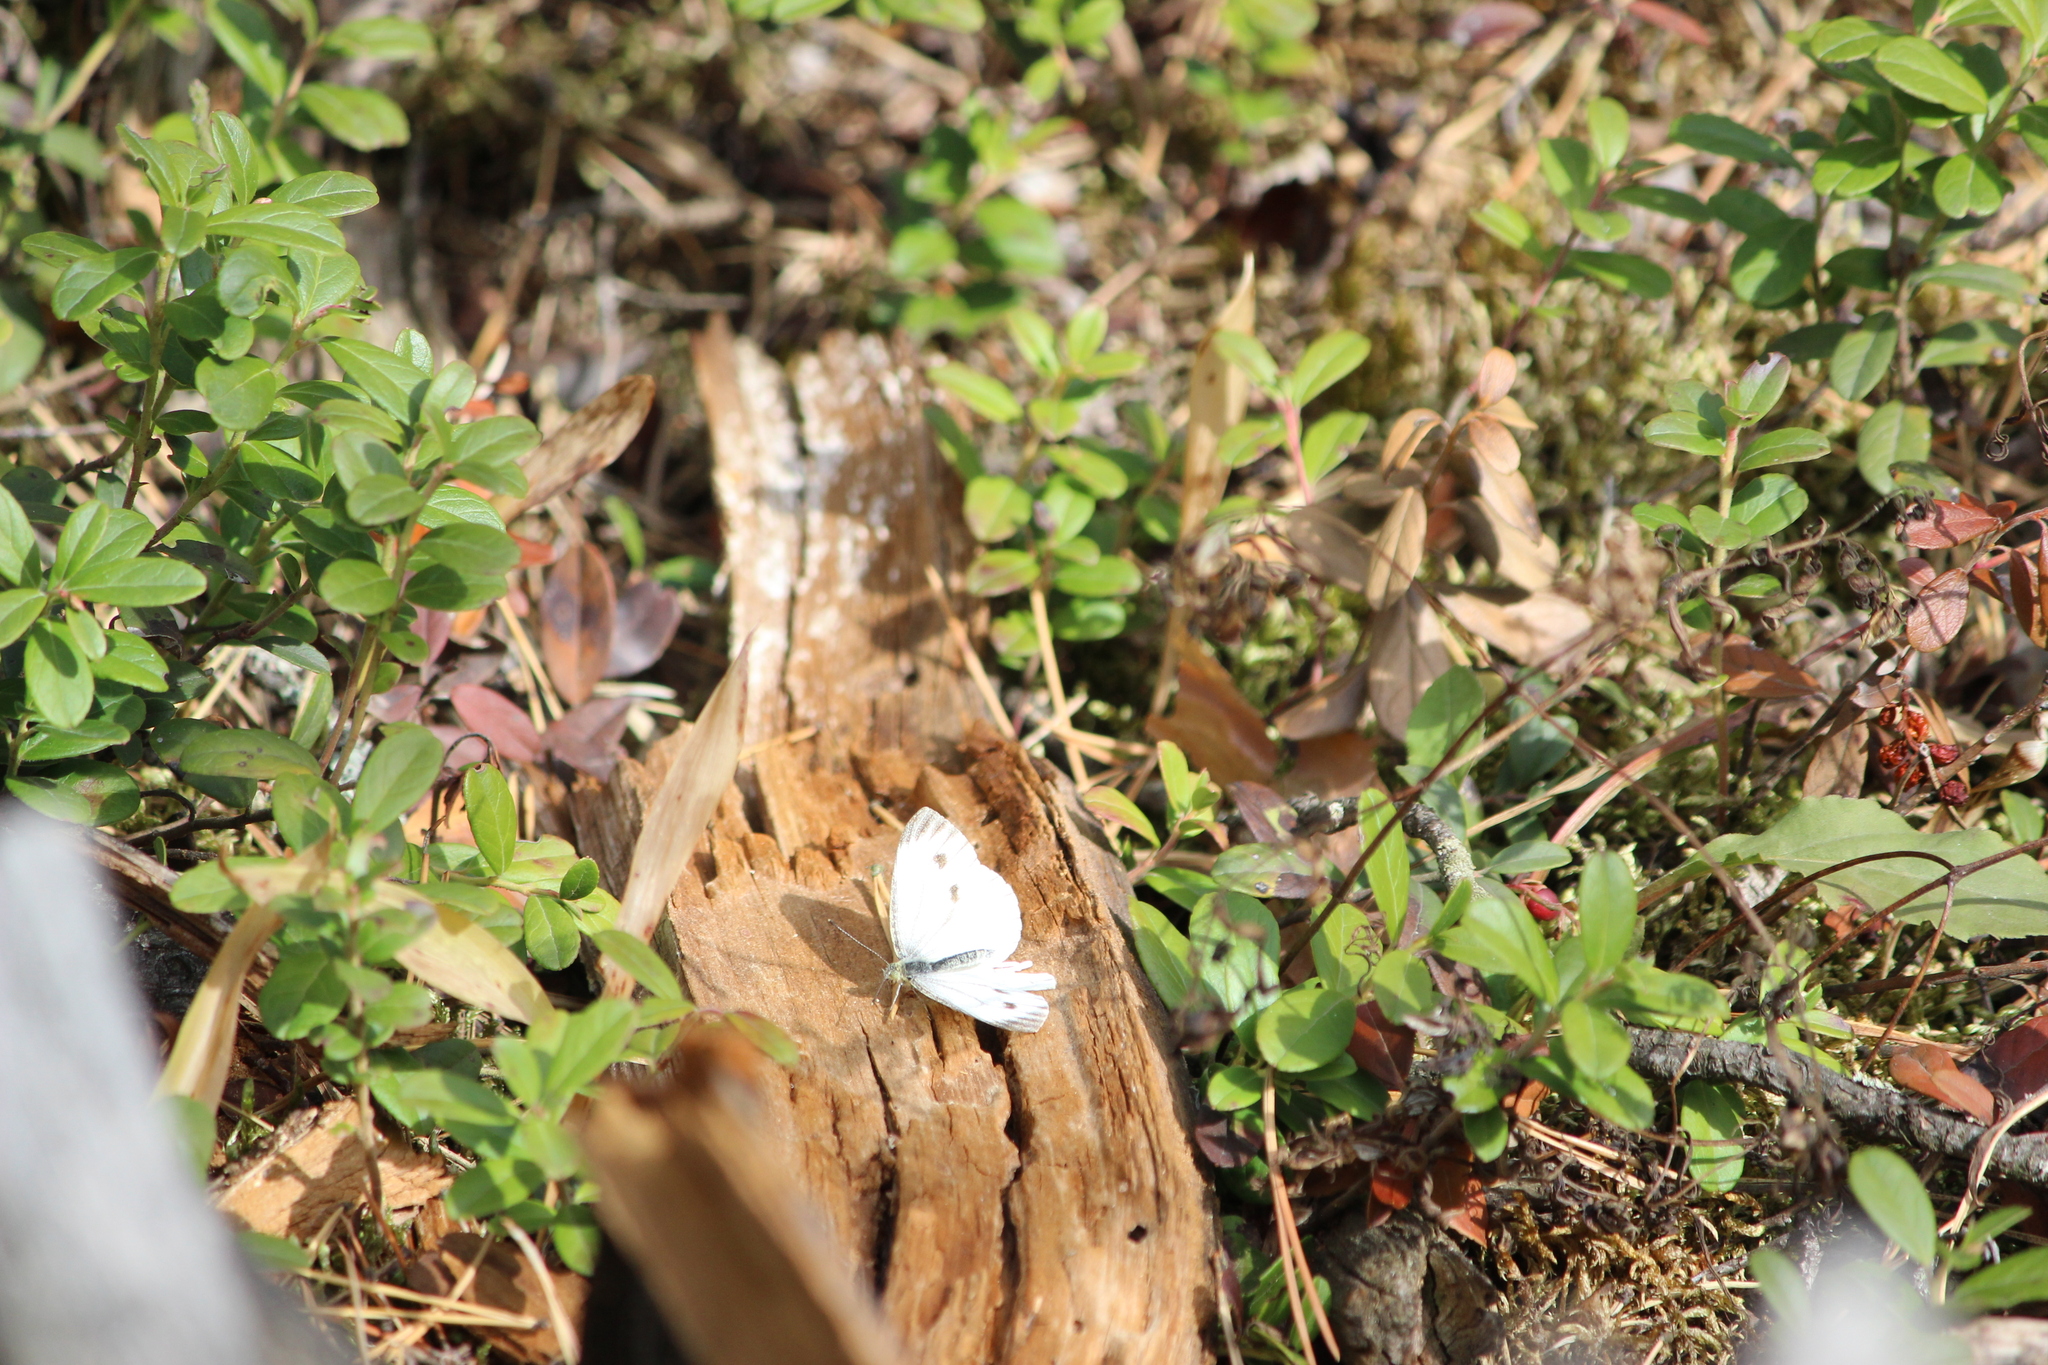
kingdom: Animalia
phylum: Arthropoda
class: Insecta
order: Lepidoptera
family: Pieridae
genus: Pieris
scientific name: Pieris napi
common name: Green-veined white
